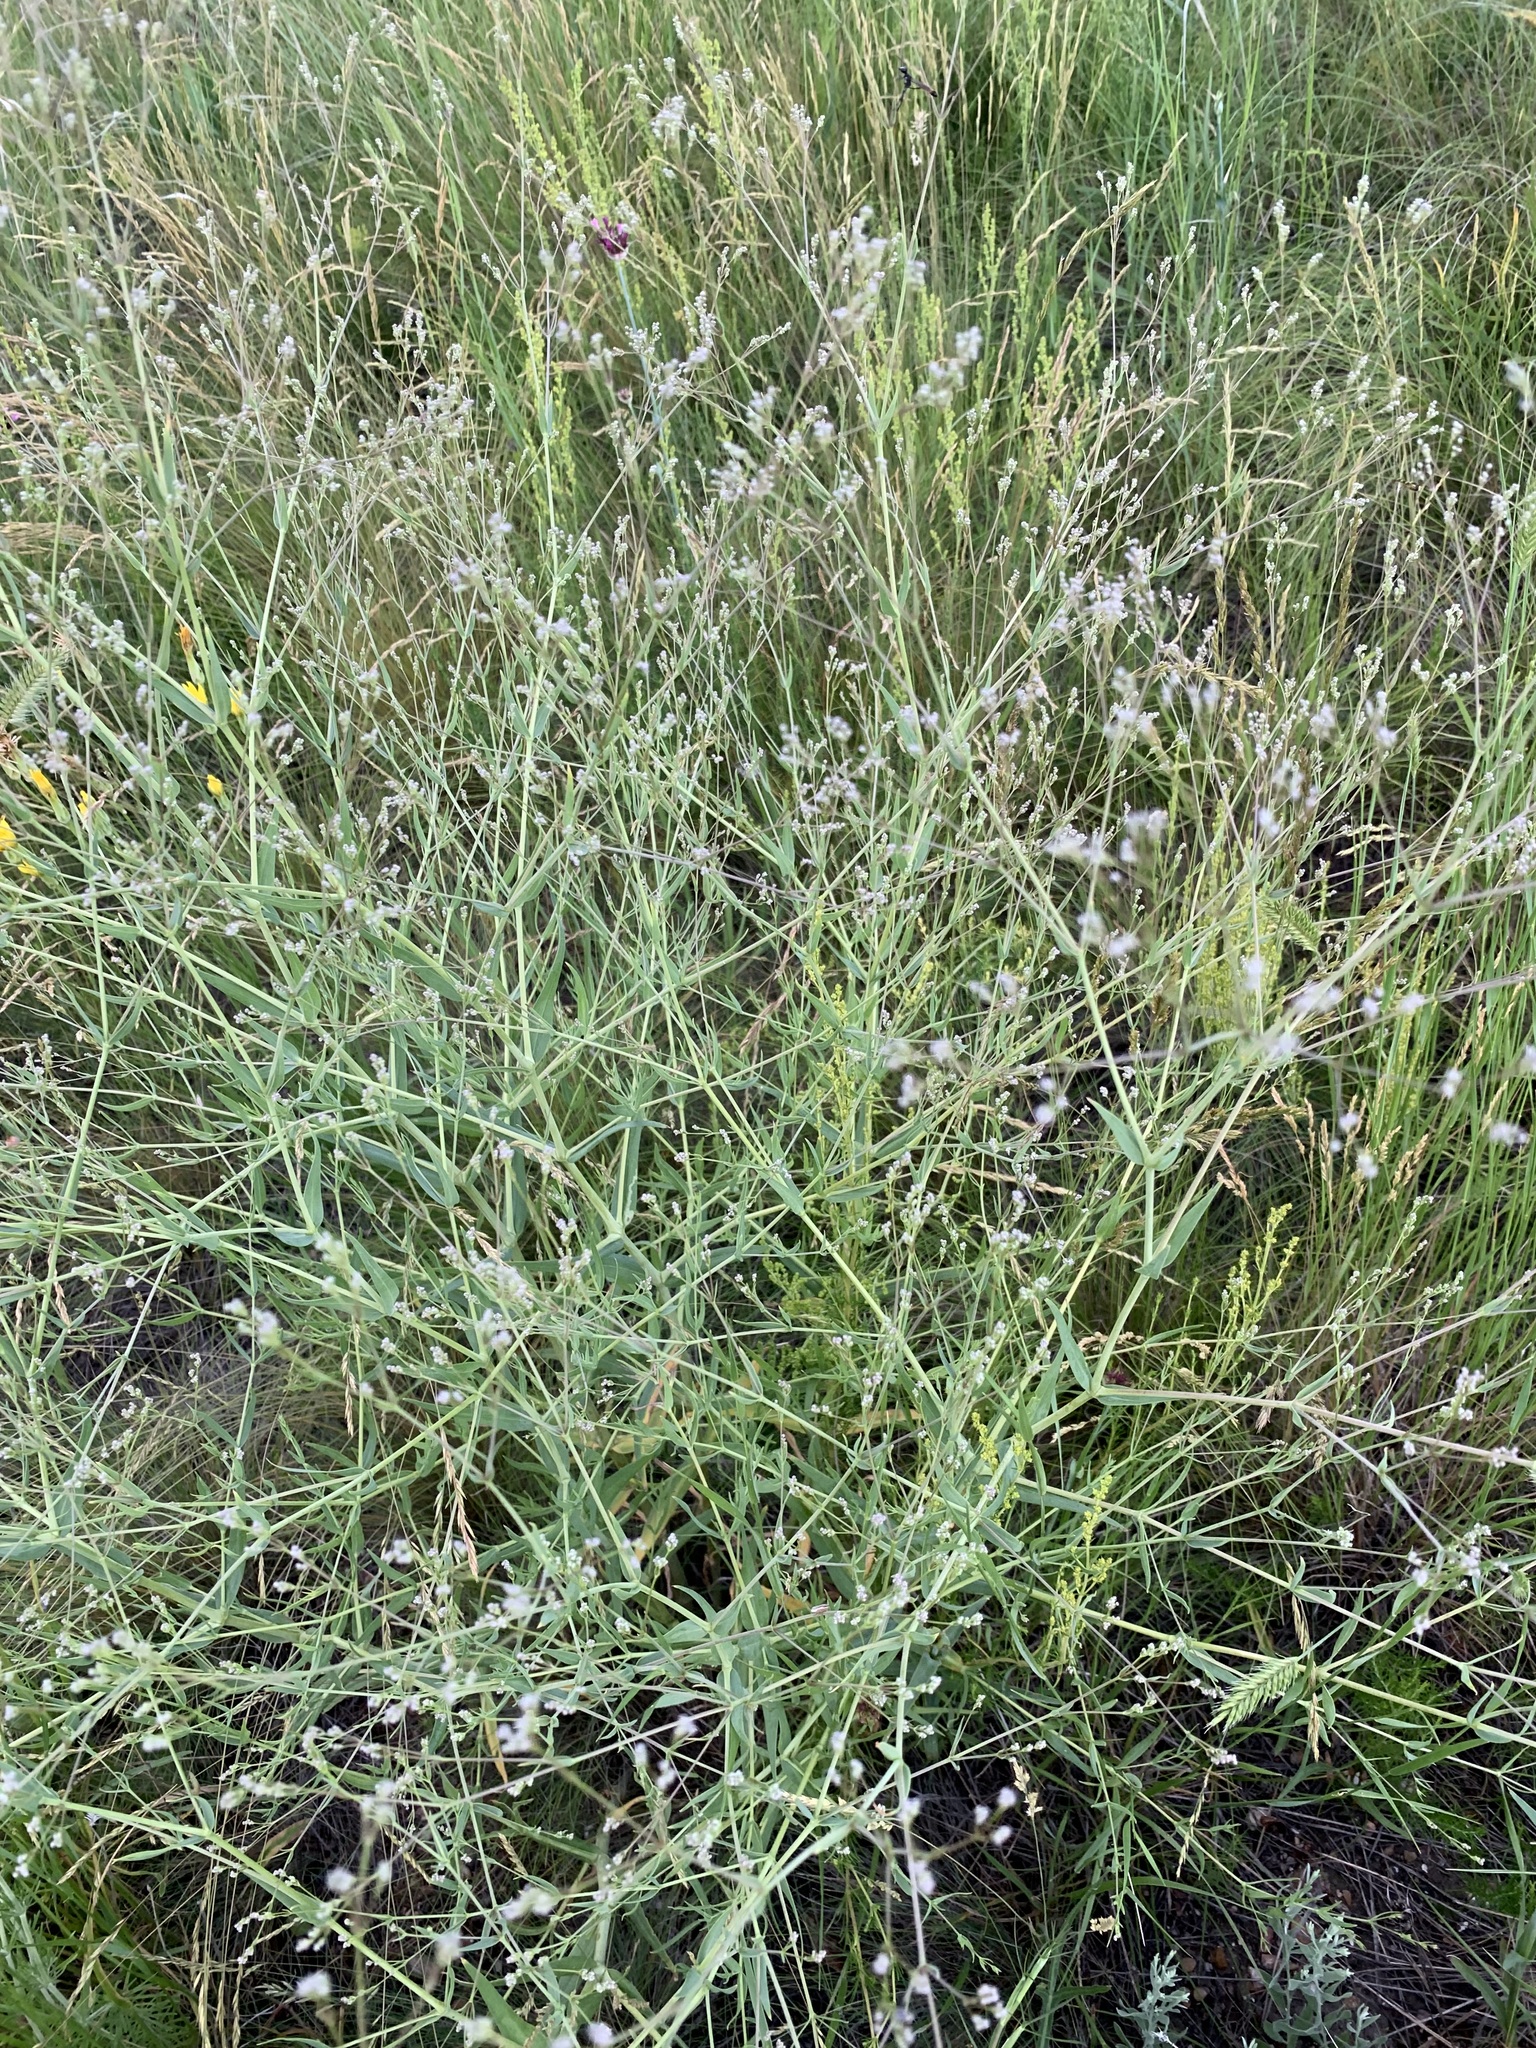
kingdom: Plantae
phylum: Tracheophyta
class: Magnoliopsida
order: Caryophyllales
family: Caryophyllaceae
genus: Gypsophila
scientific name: Gypsophila paniculata
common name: Baby's-breath
